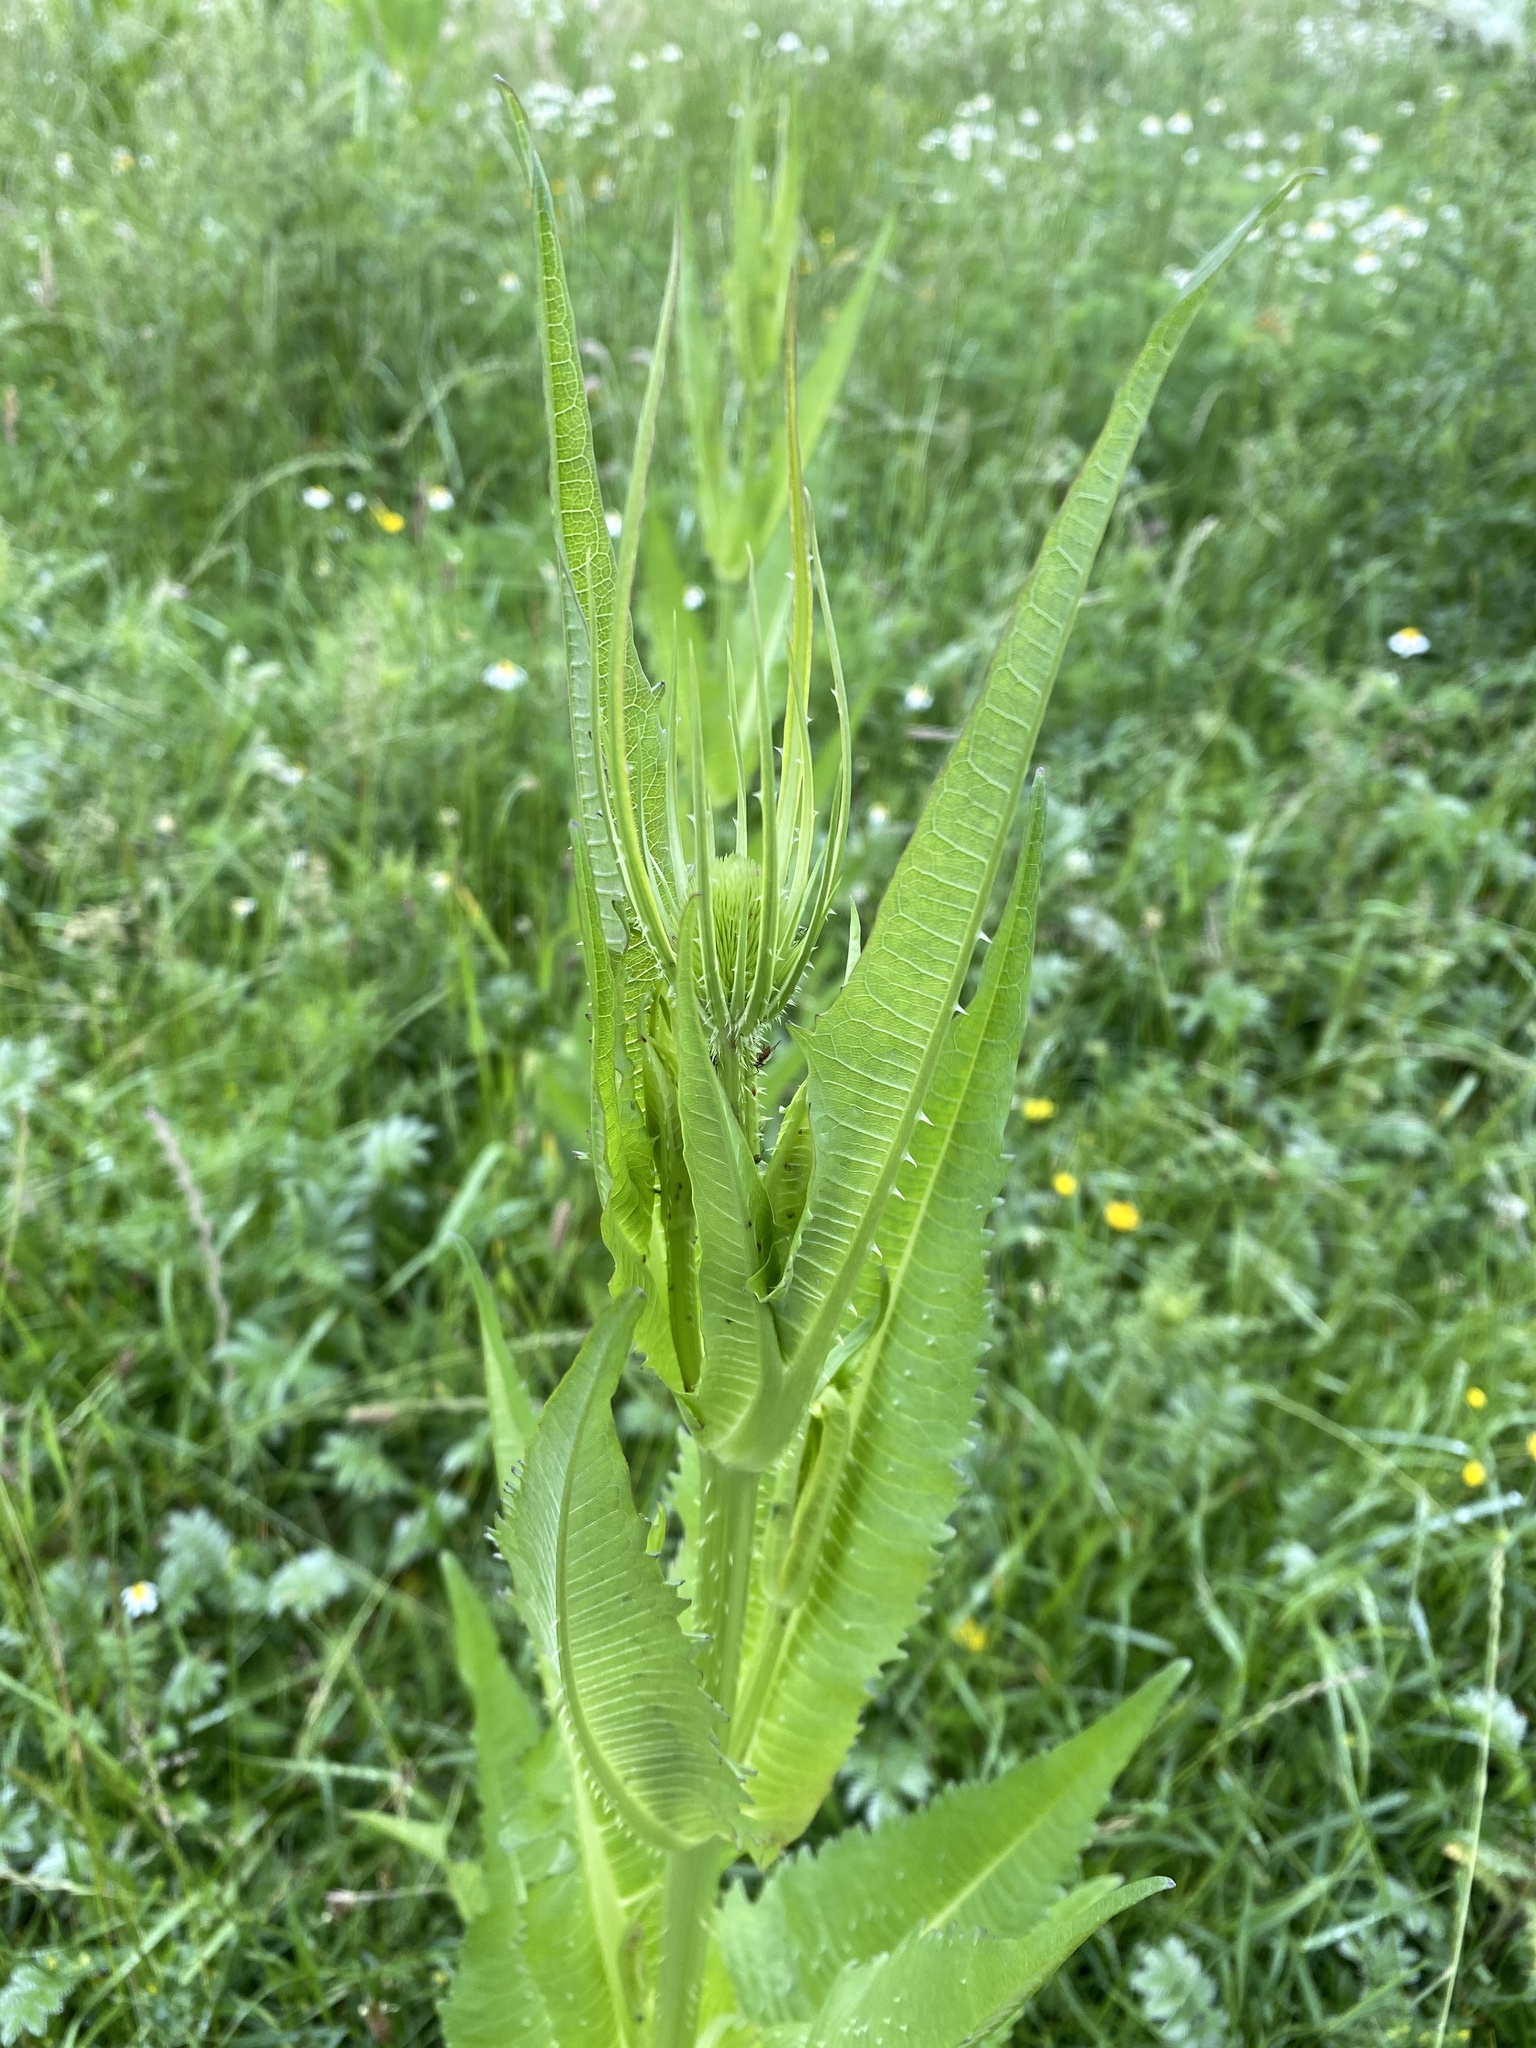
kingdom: Plantae
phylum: Tracheophyta
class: Magnoliopsida
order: Dipsacales
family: Caprifoliaceae
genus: Dipsacus
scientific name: Dipsacus fullonum
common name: Teasel
